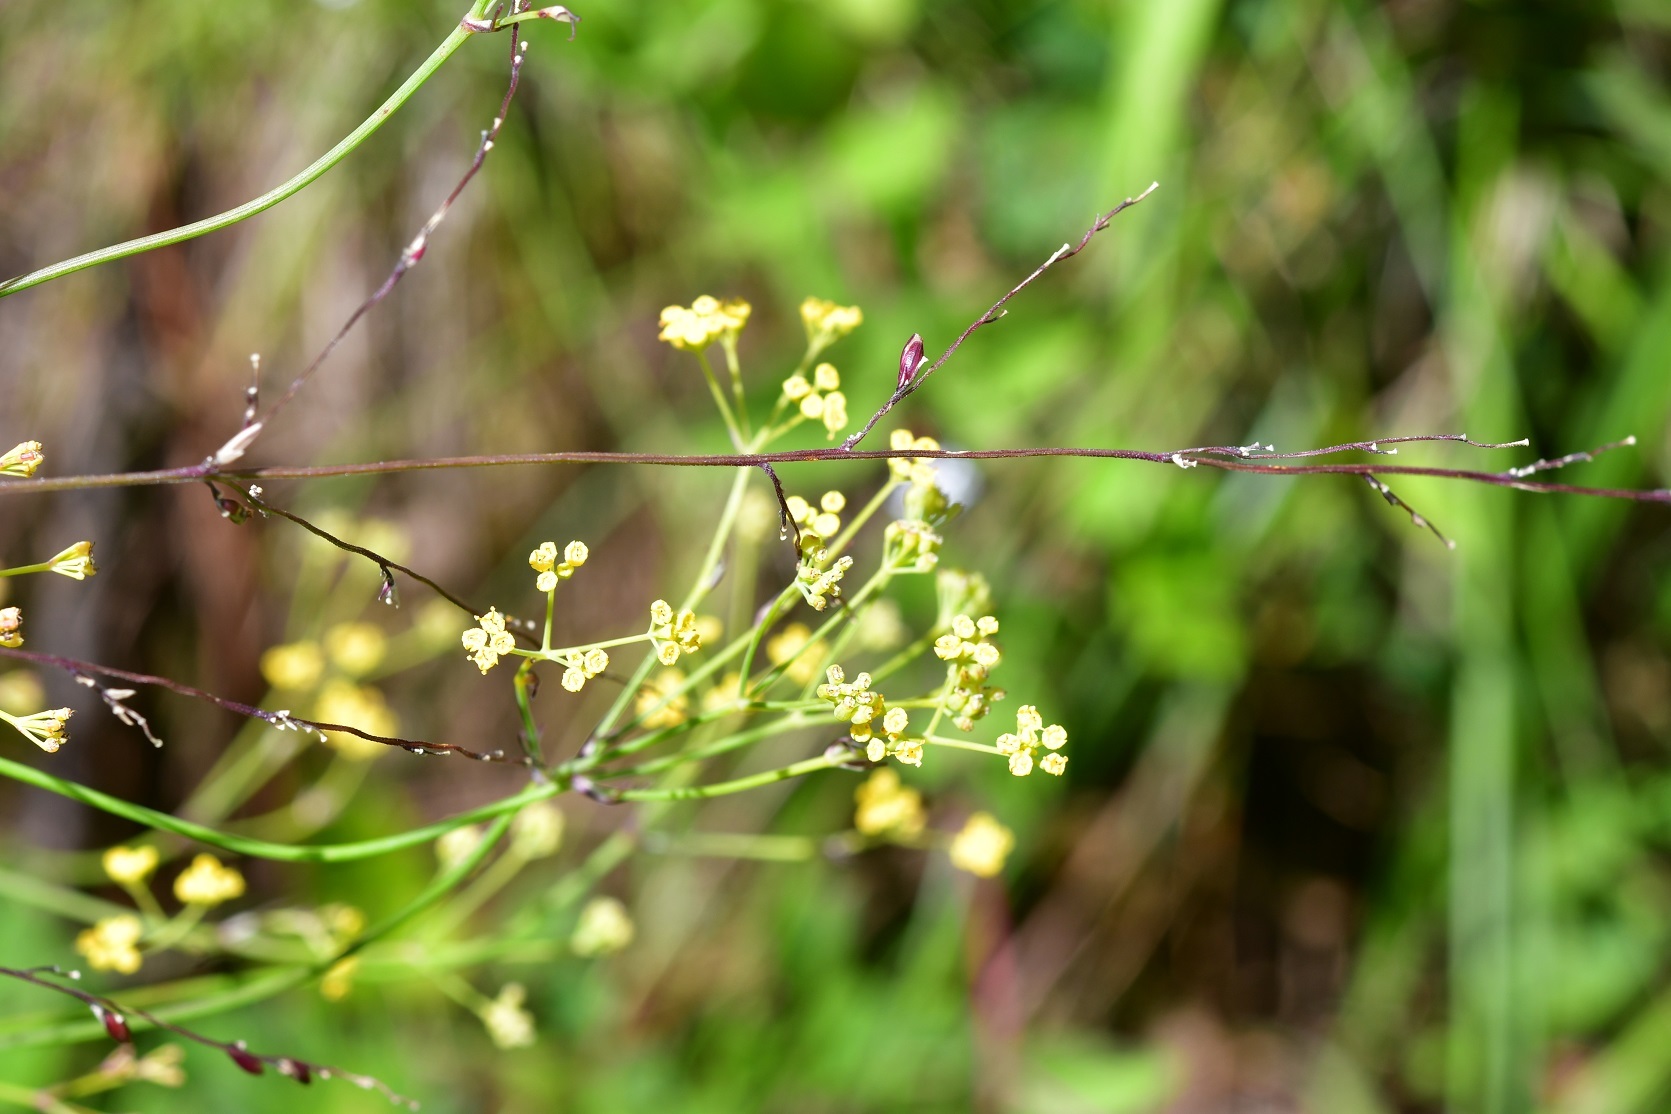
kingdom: Plantae
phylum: Tracheophyta
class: Magnoliopsida
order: Apiales
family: Apiaceae
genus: Donnellsmithia
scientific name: Donnellsmithia juncea
